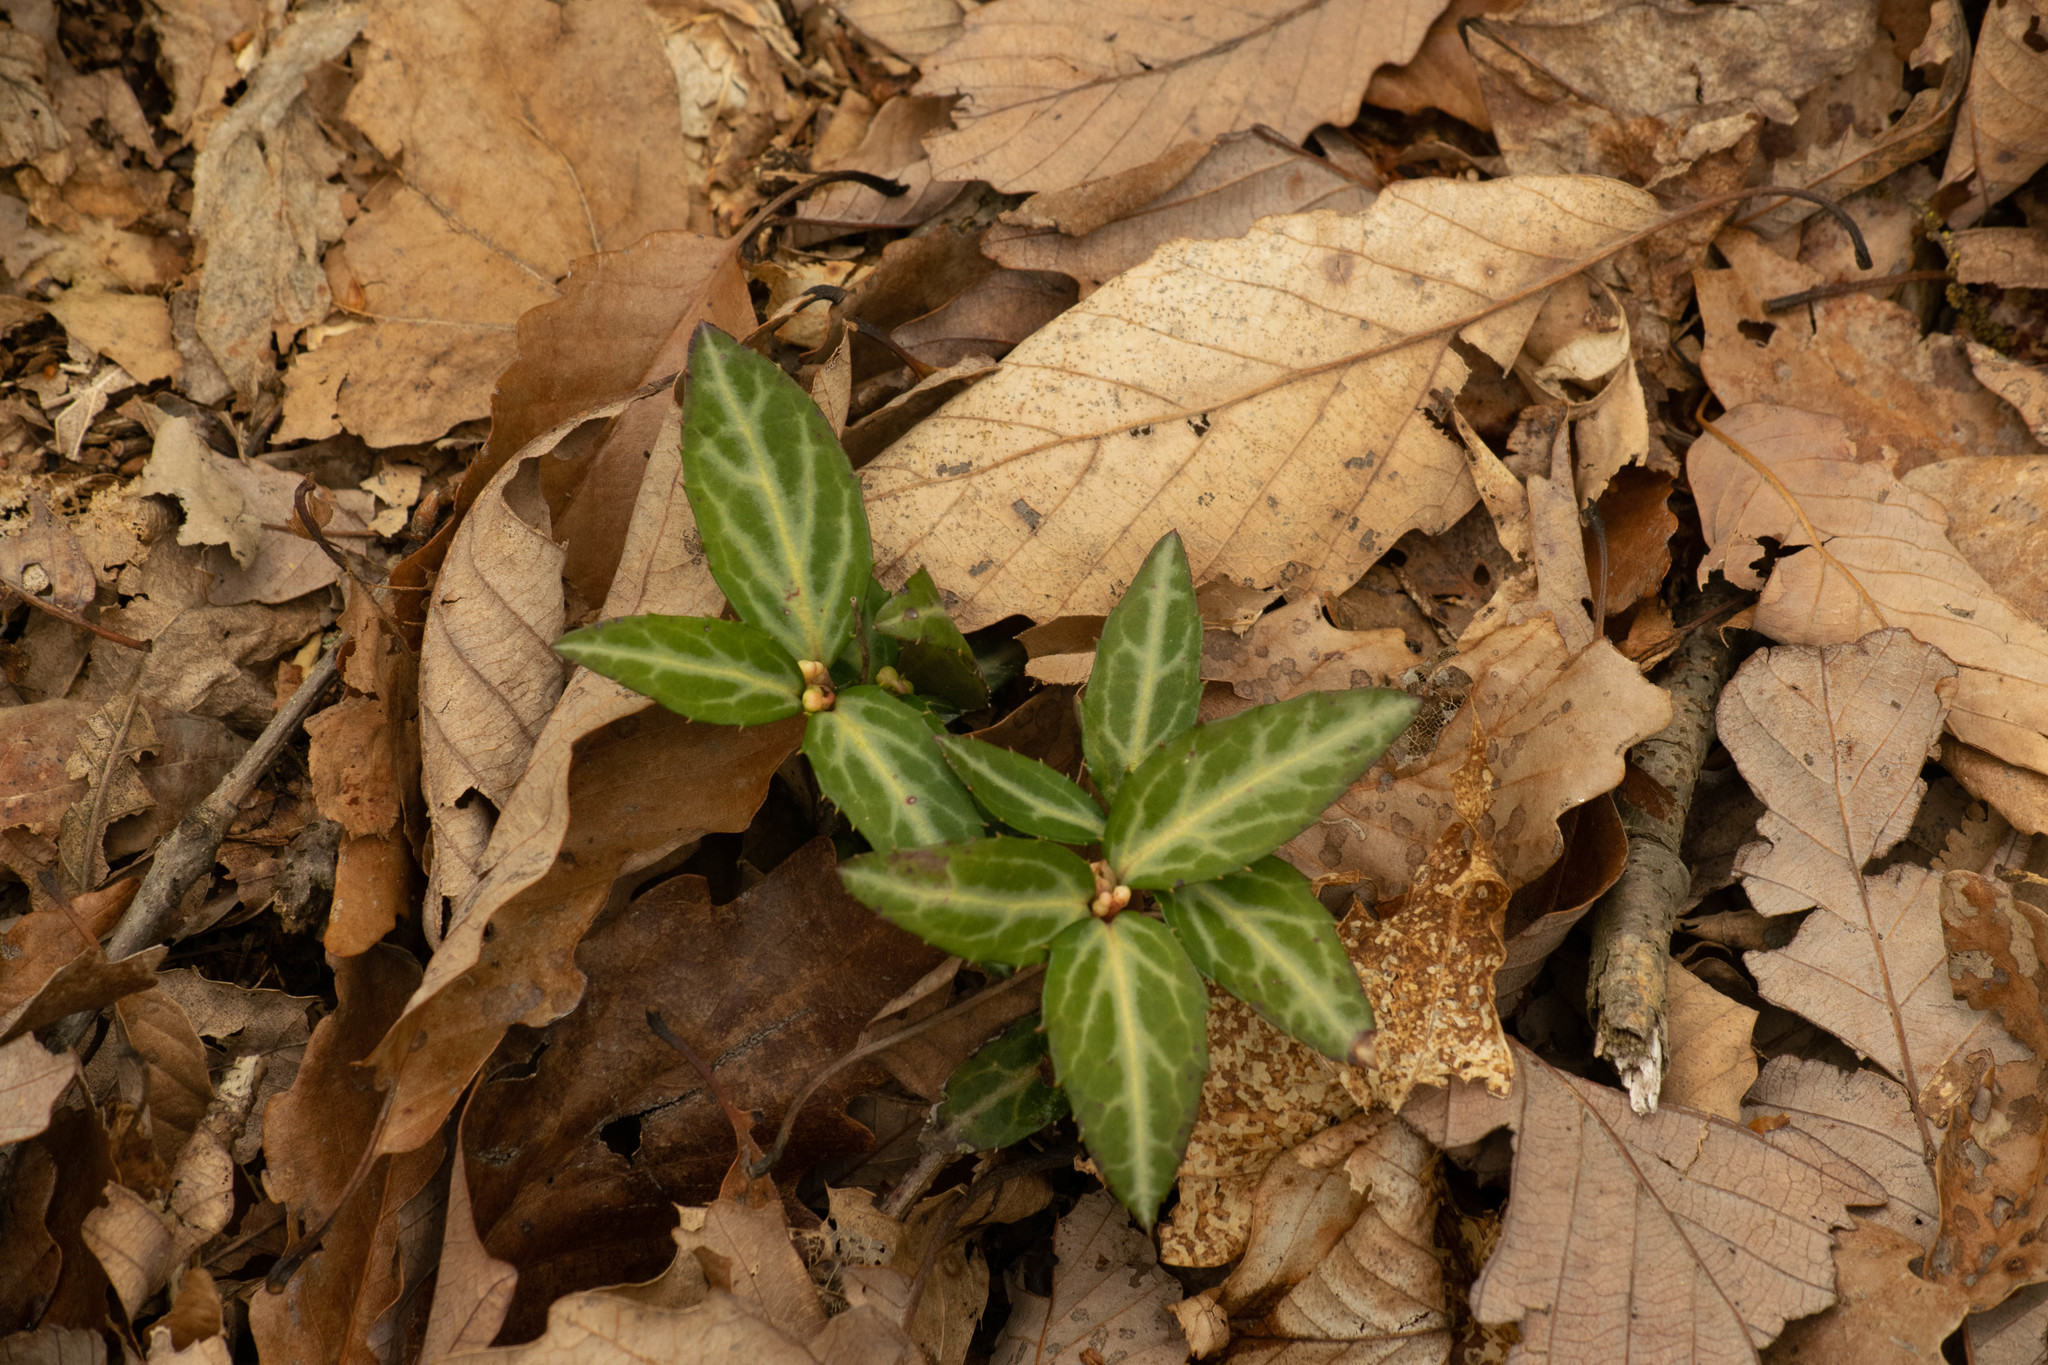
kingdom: Plantae
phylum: Tracheophyta
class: Magnoliopsida
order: Ericales
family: Ericaceae
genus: Chimaphila
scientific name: Chimaphila maculata
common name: Spotted pipsissewa
